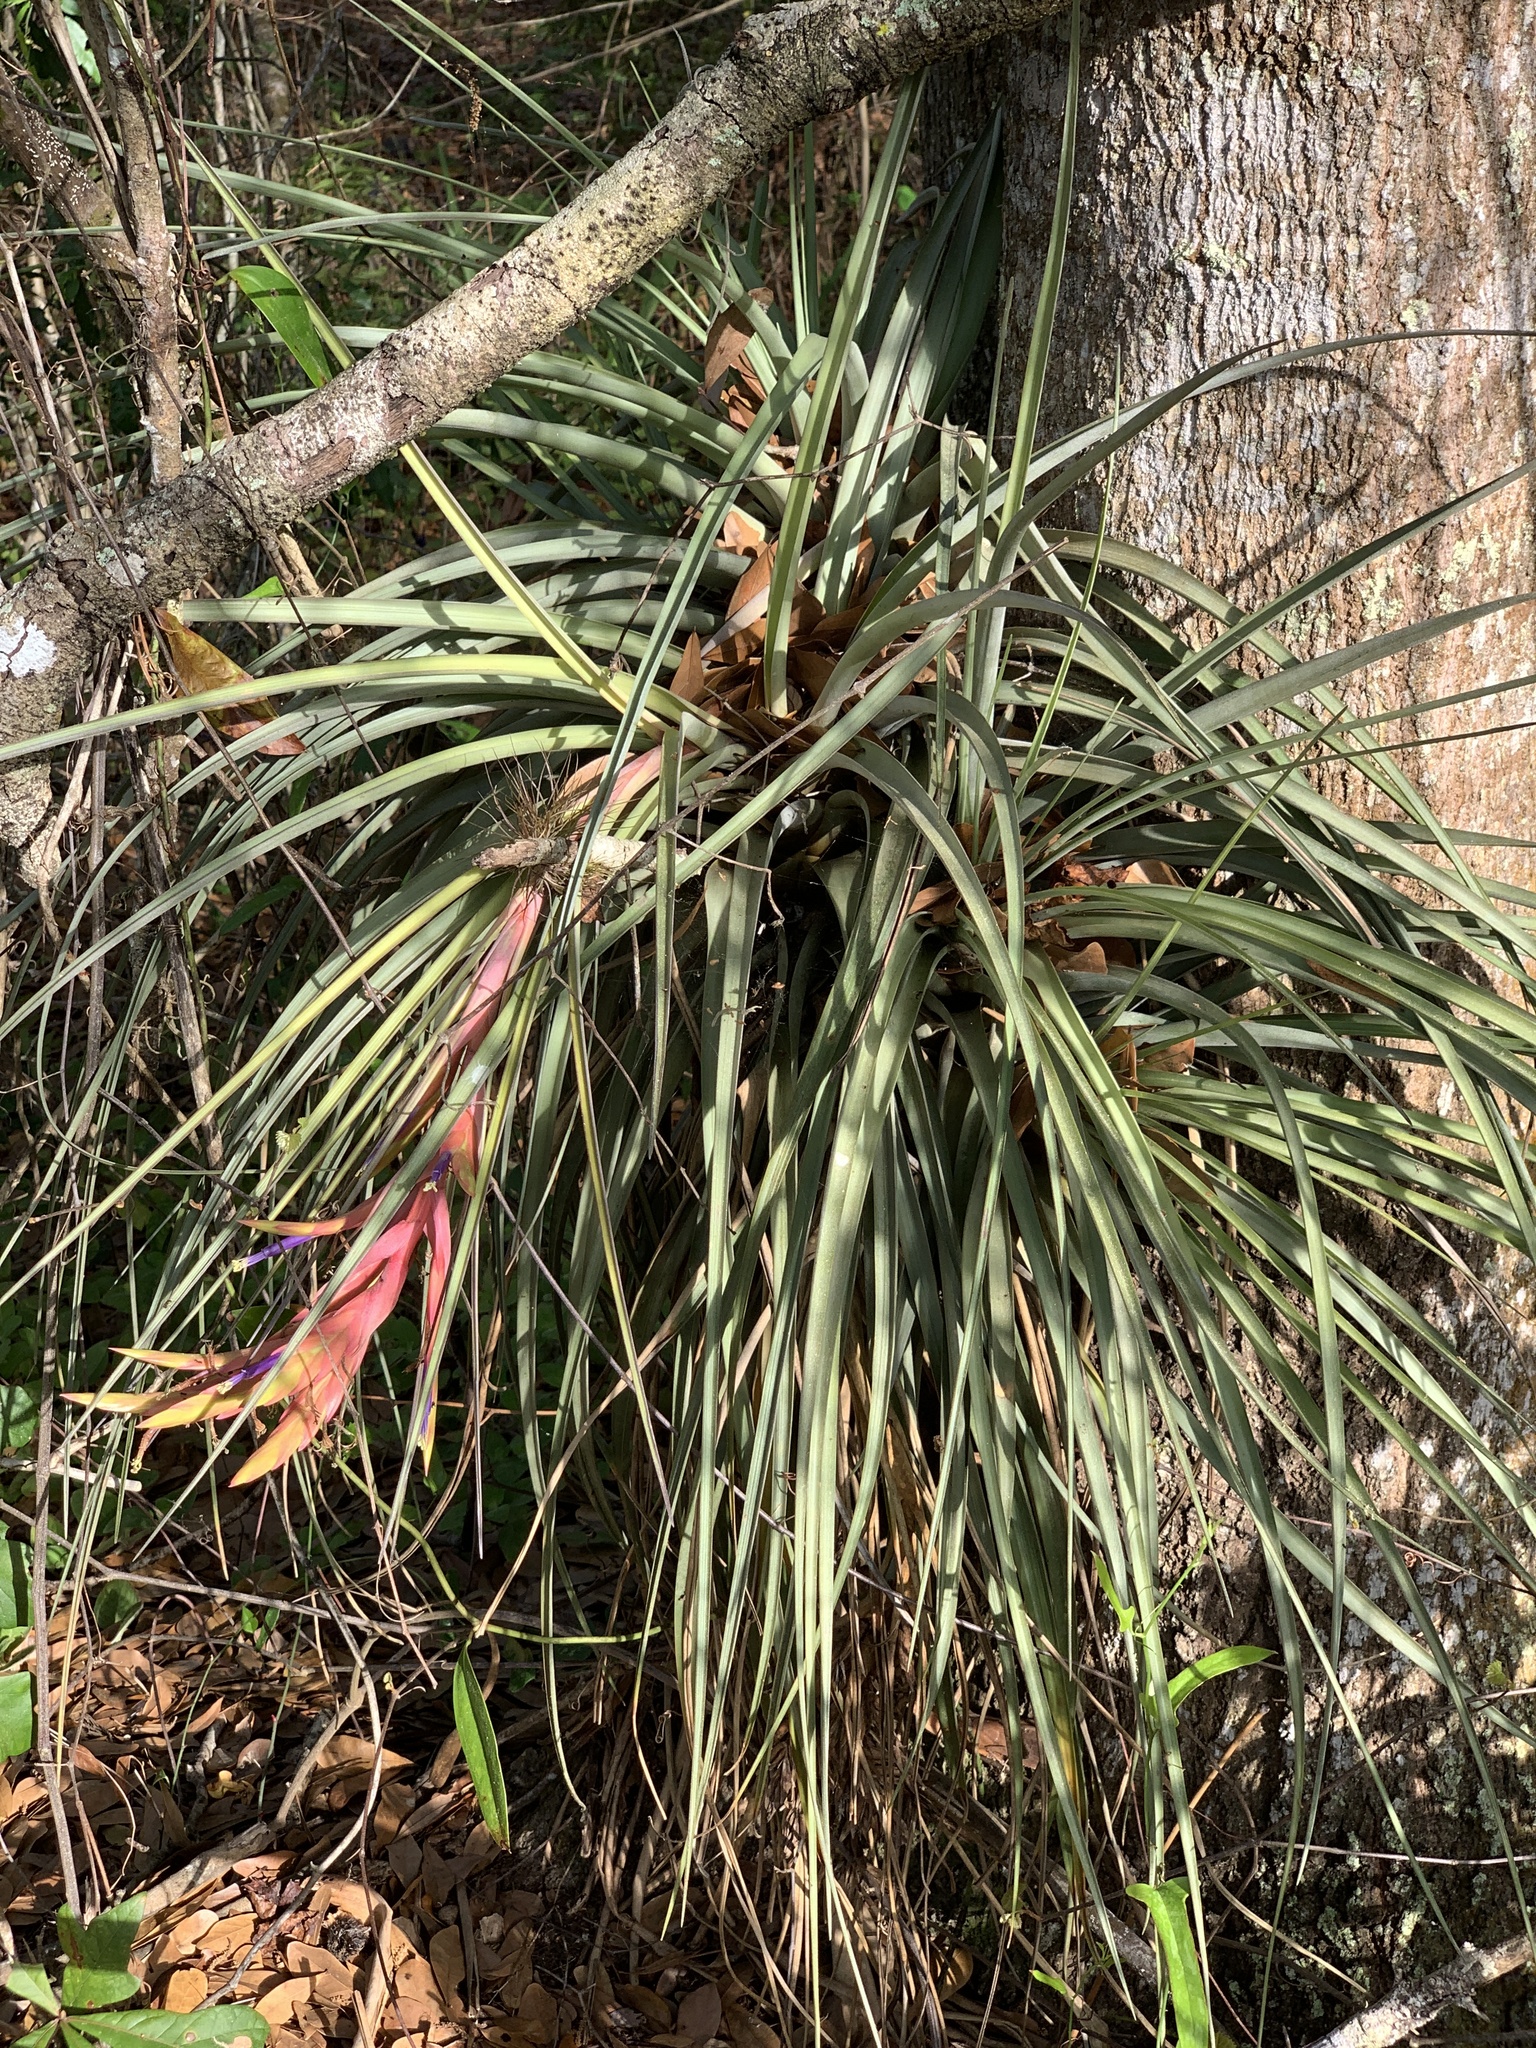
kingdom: Plantae
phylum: Tracheophyta
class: Liliopsida
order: Poales
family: Bromeliaceae
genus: Tillandsia
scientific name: Tillandsia fasciculata
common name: Giant airplant
